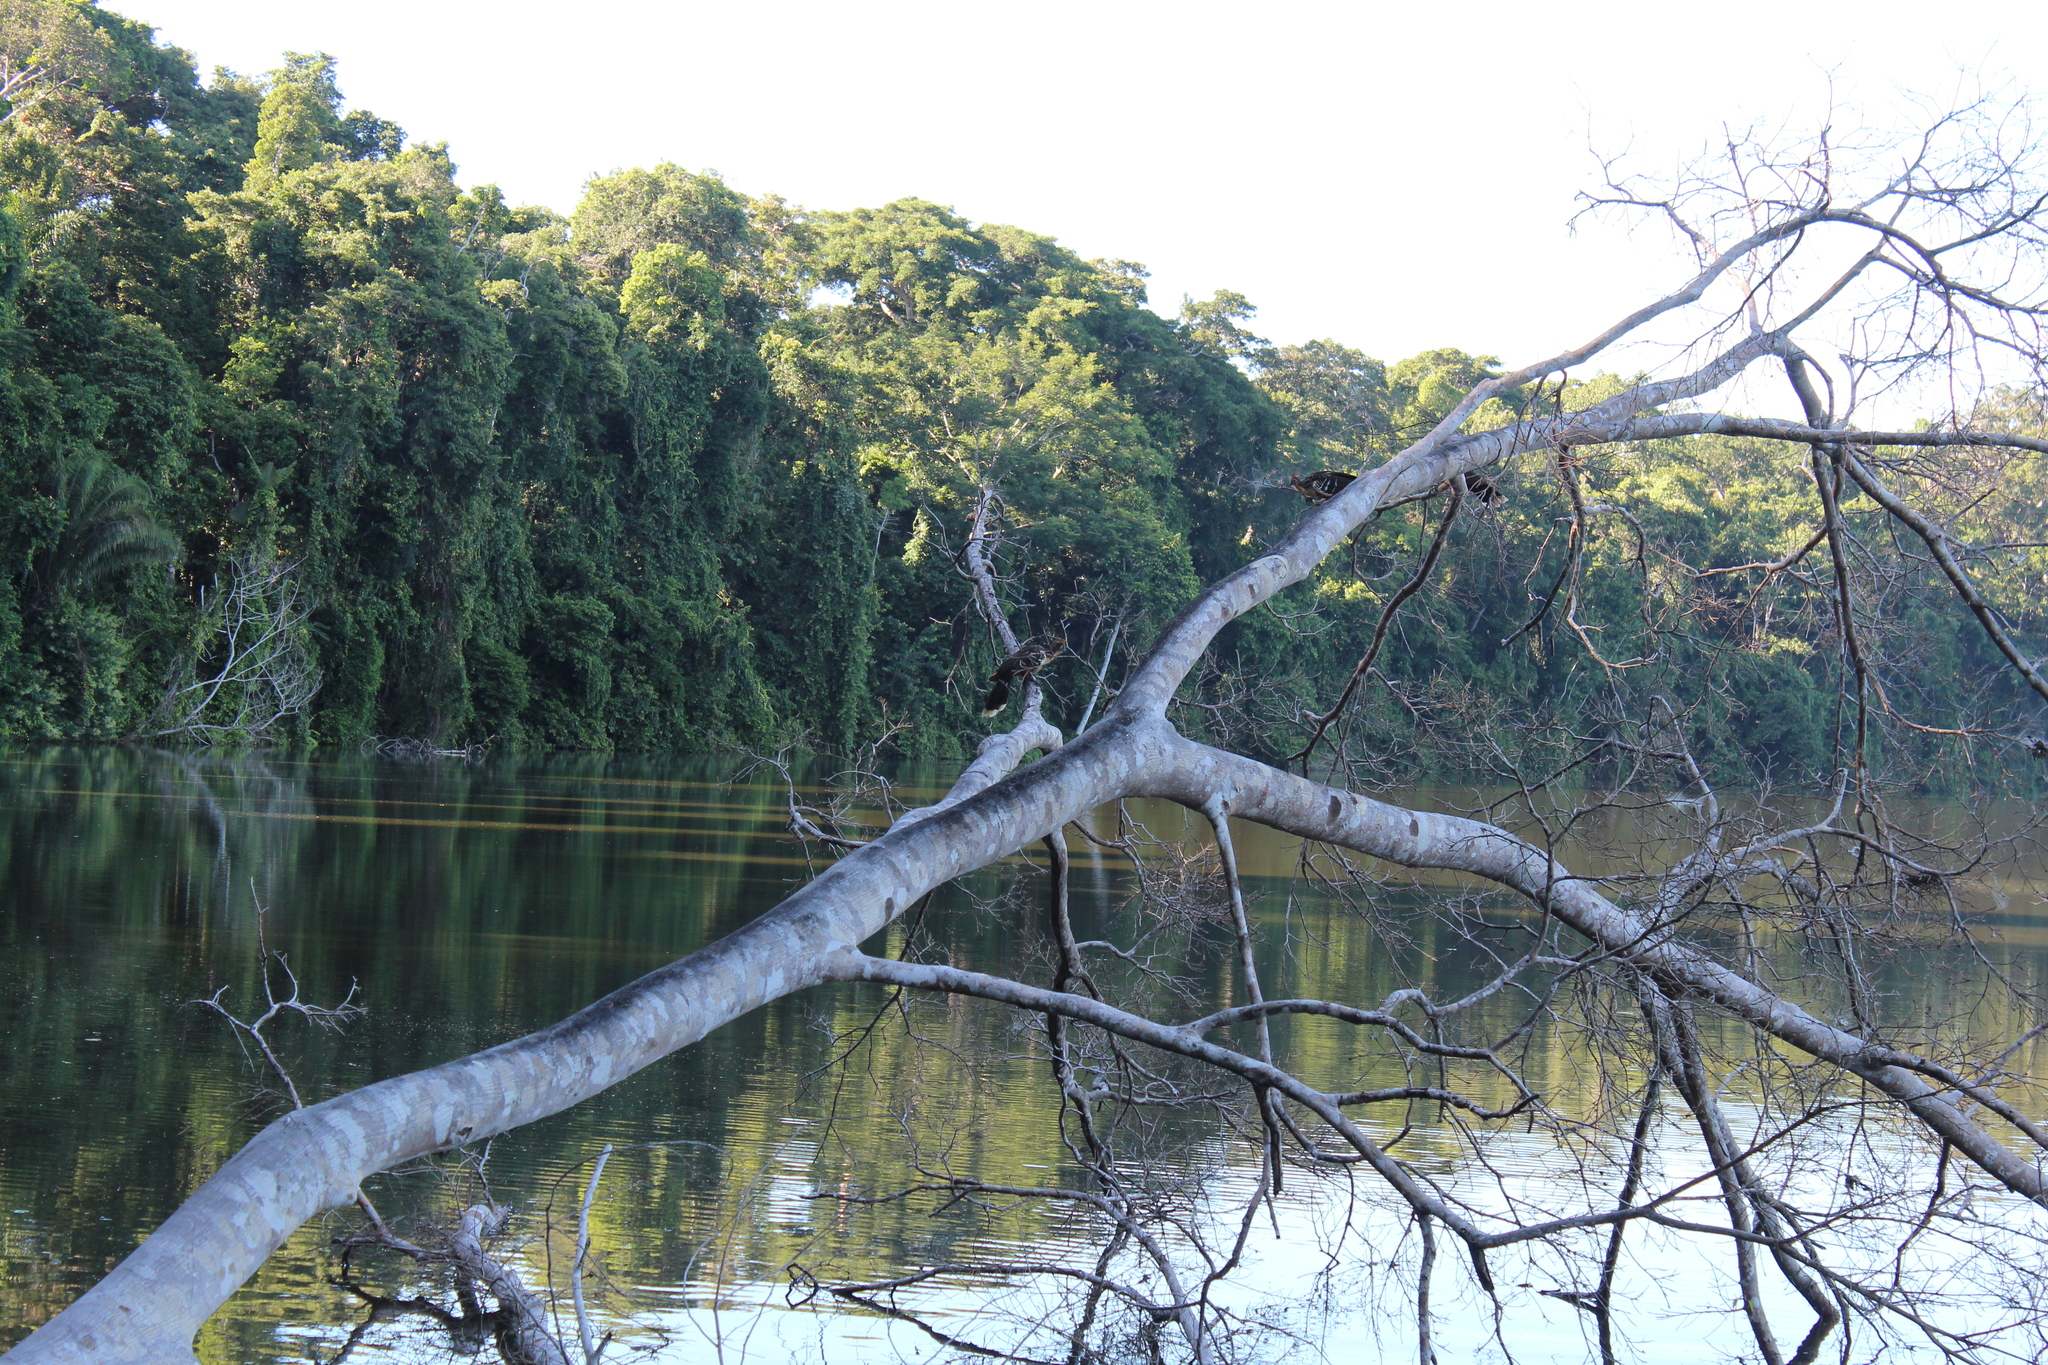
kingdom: Animalia
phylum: Chordata
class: Aves
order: Opisthocomiformes
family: Opisthocomidae
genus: Opisthocomus
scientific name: Opisthocomus hoazin
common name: Hoatzin
